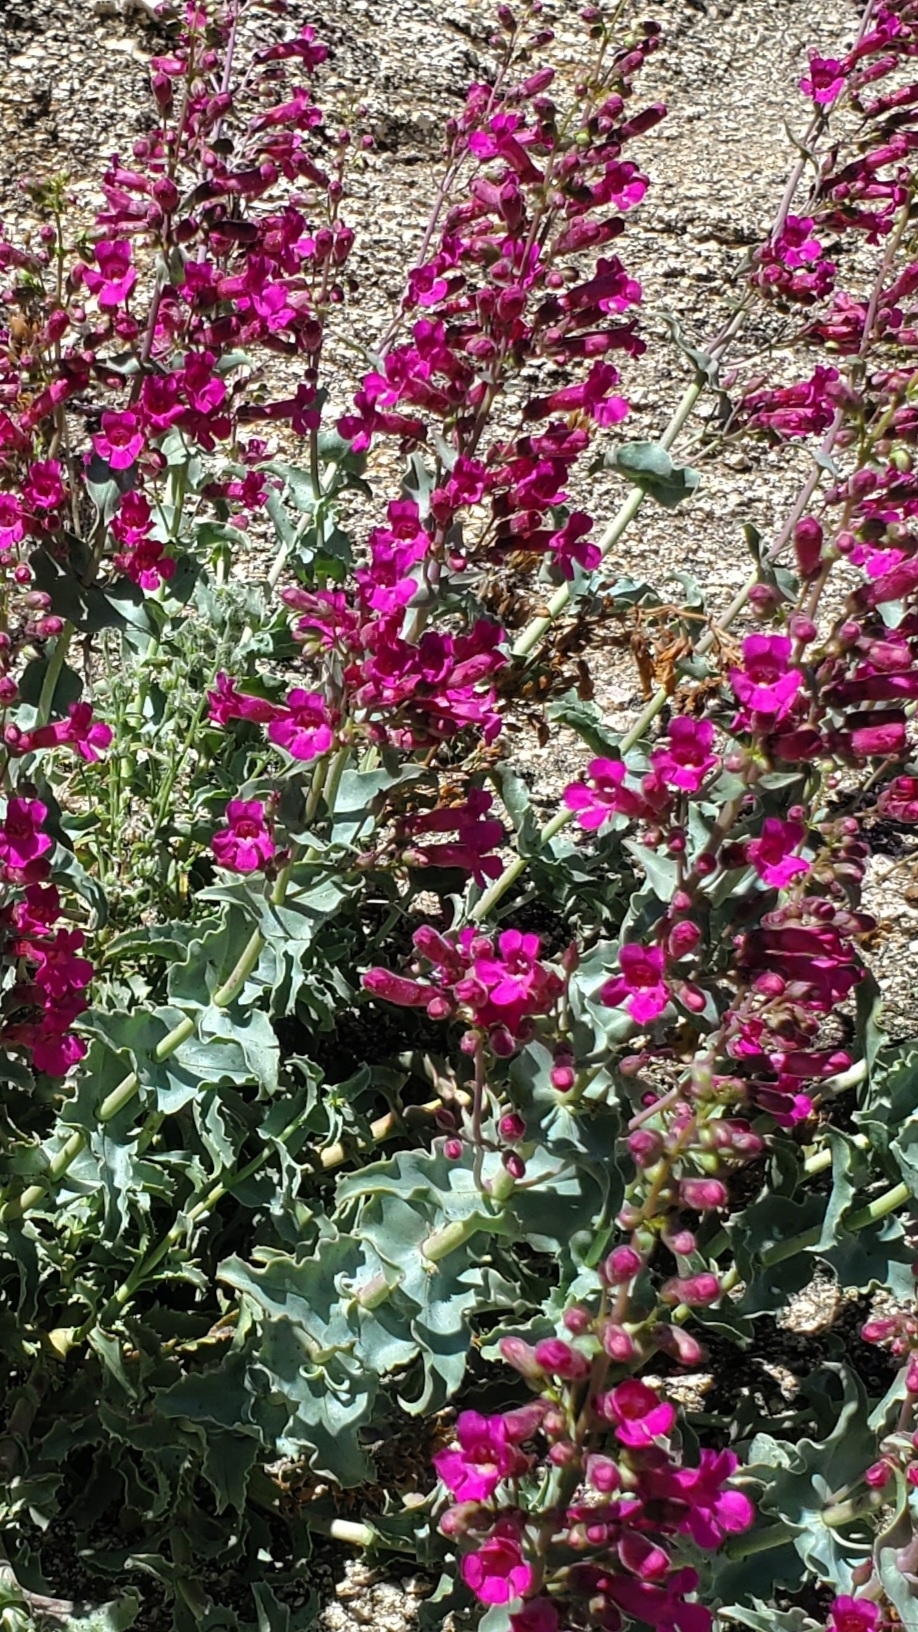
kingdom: Plantae
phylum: Tracheophyta
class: Magnoliopsida
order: Lamiales
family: Plantaginaceae
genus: Penstemon
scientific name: Penstemon clevelandii
